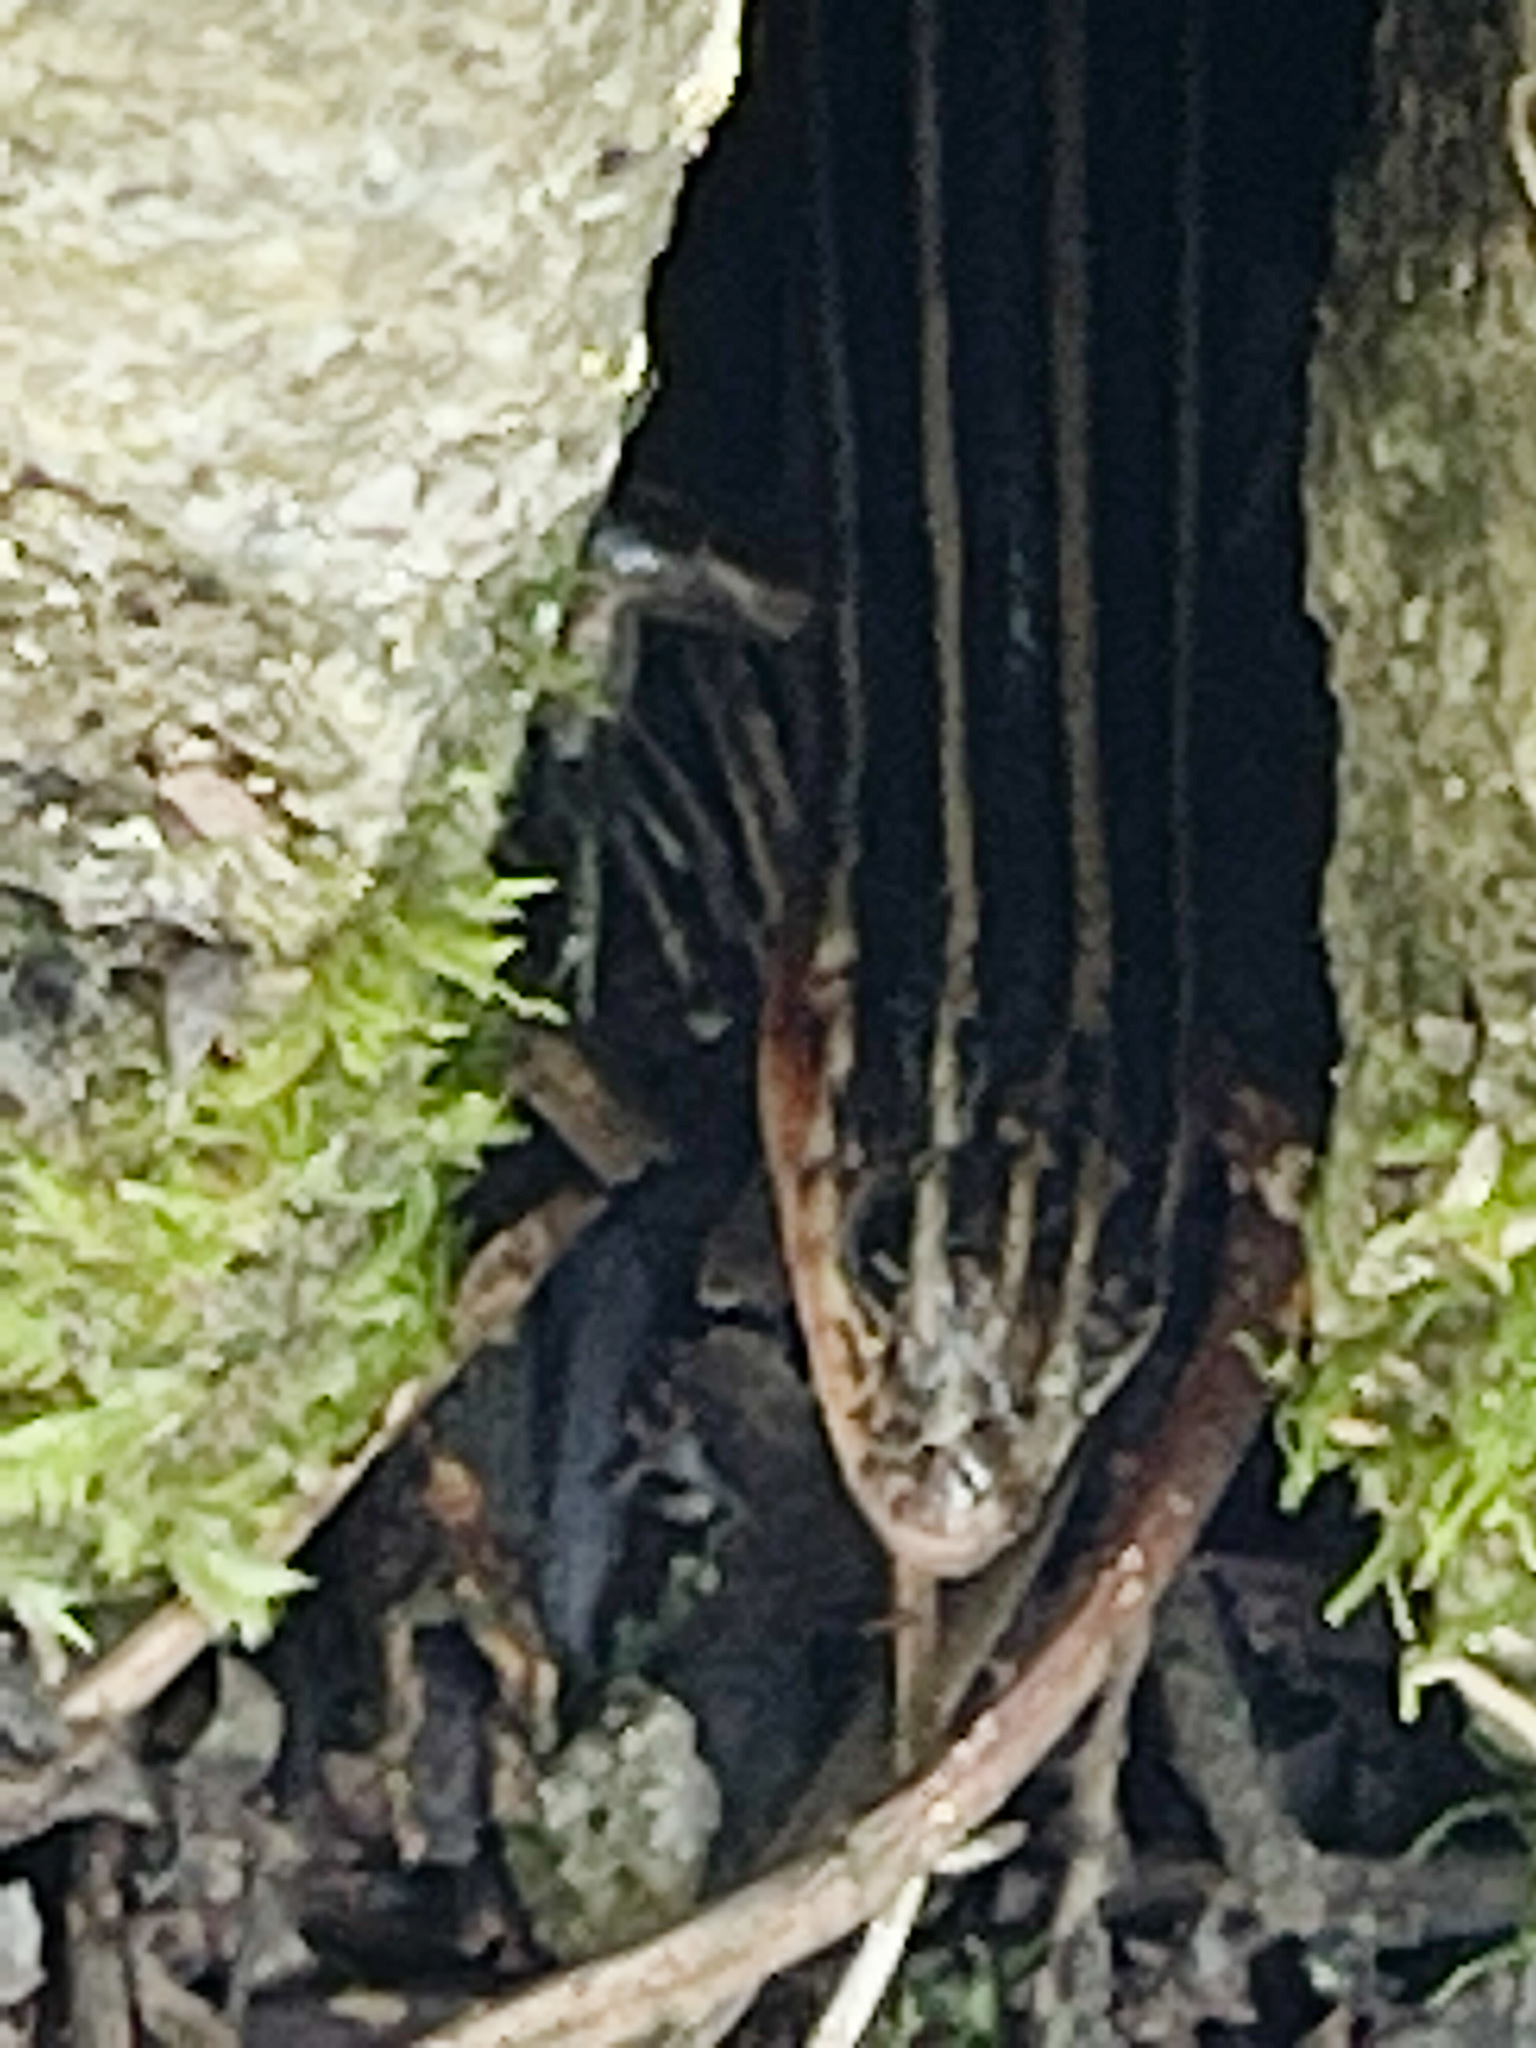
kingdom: Animalia
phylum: Chordata
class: Squamata
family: Scincidae
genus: Plestiodon
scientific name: Plestiodon elegans
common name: Shanghai elegant skink
